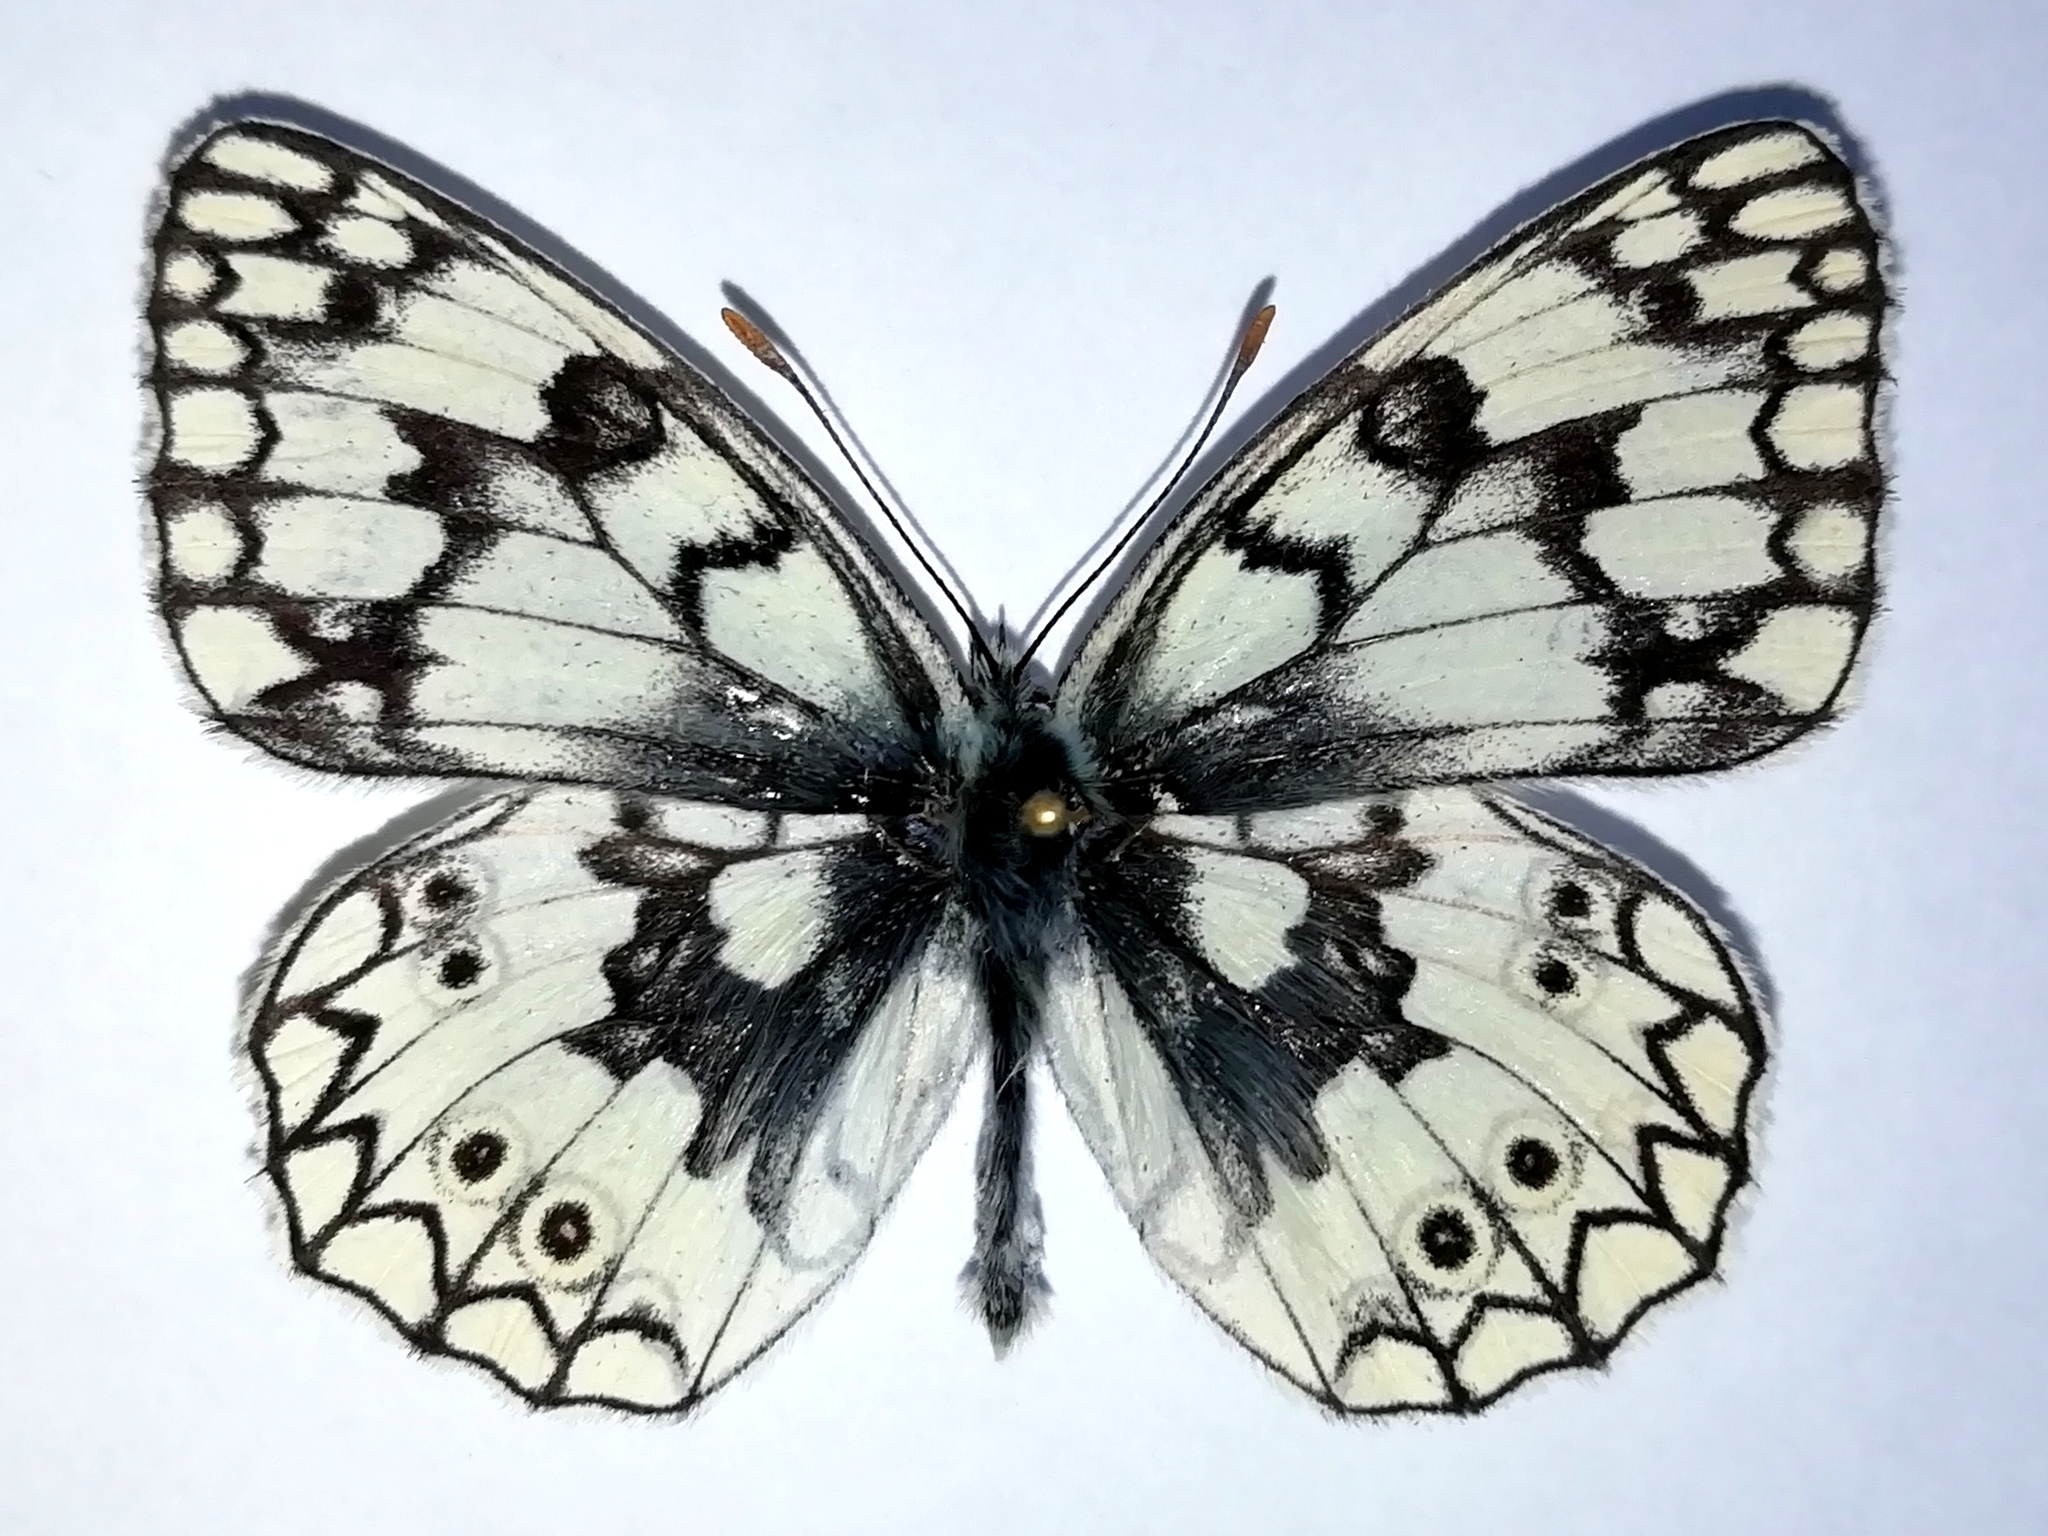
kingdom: Animalia
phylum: Arthropoda
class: Insecta
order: Lepidoptera
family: Nymphalidae
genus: Melanargia
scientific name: Melanargia japygia
